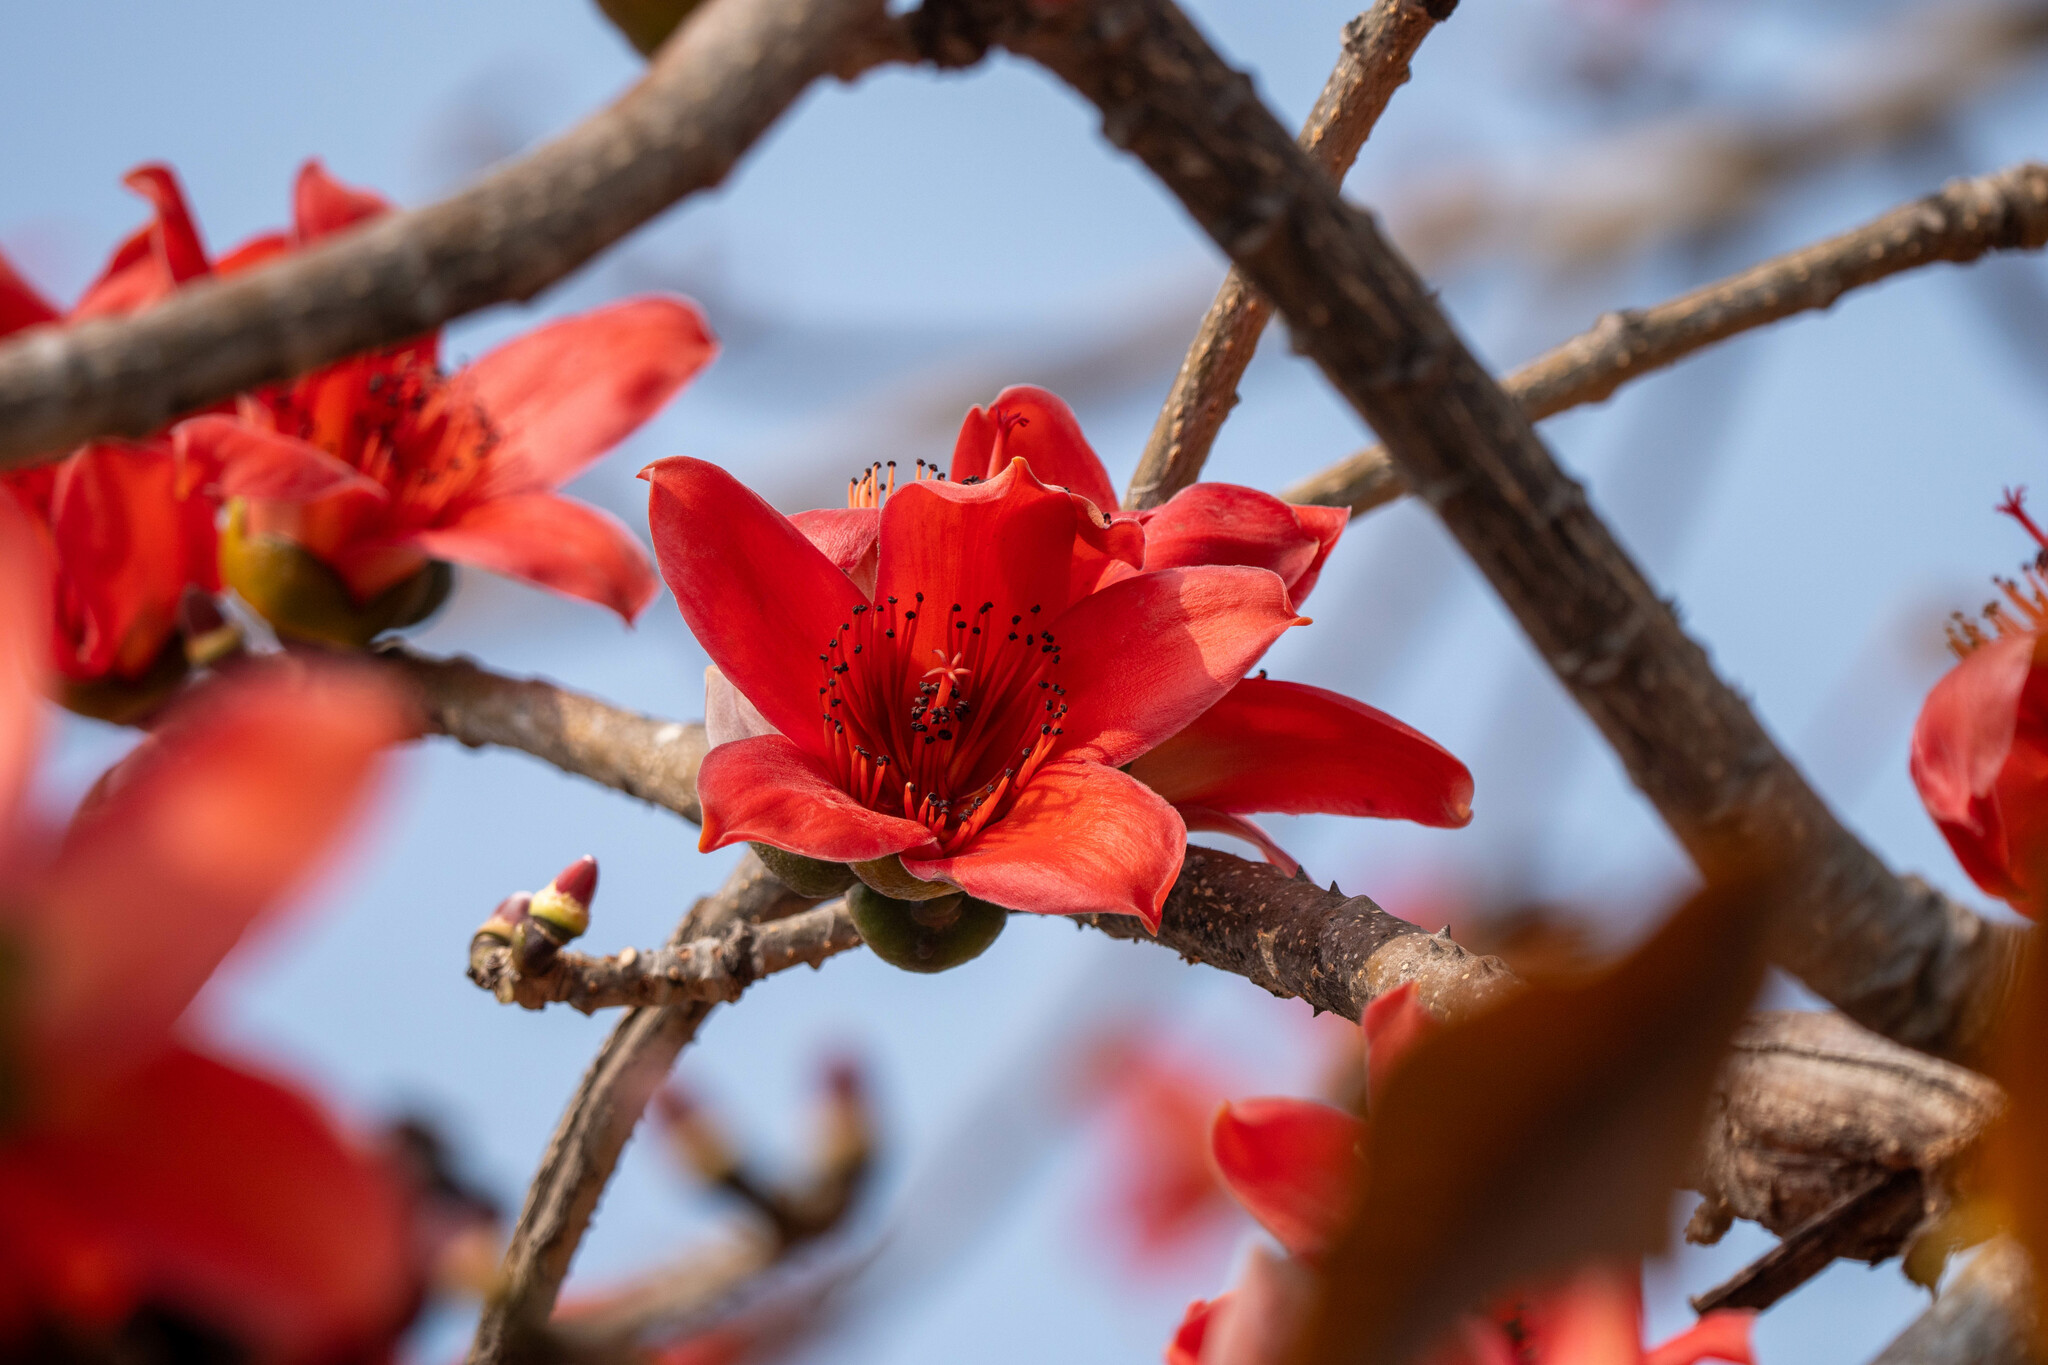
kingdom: Plantae
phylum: Tracheophyta
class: Magnoliopsida
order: Malvales
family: Malvaceae
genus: Bombax
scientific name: Bombax ceiba
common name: Northern-cottonwood
